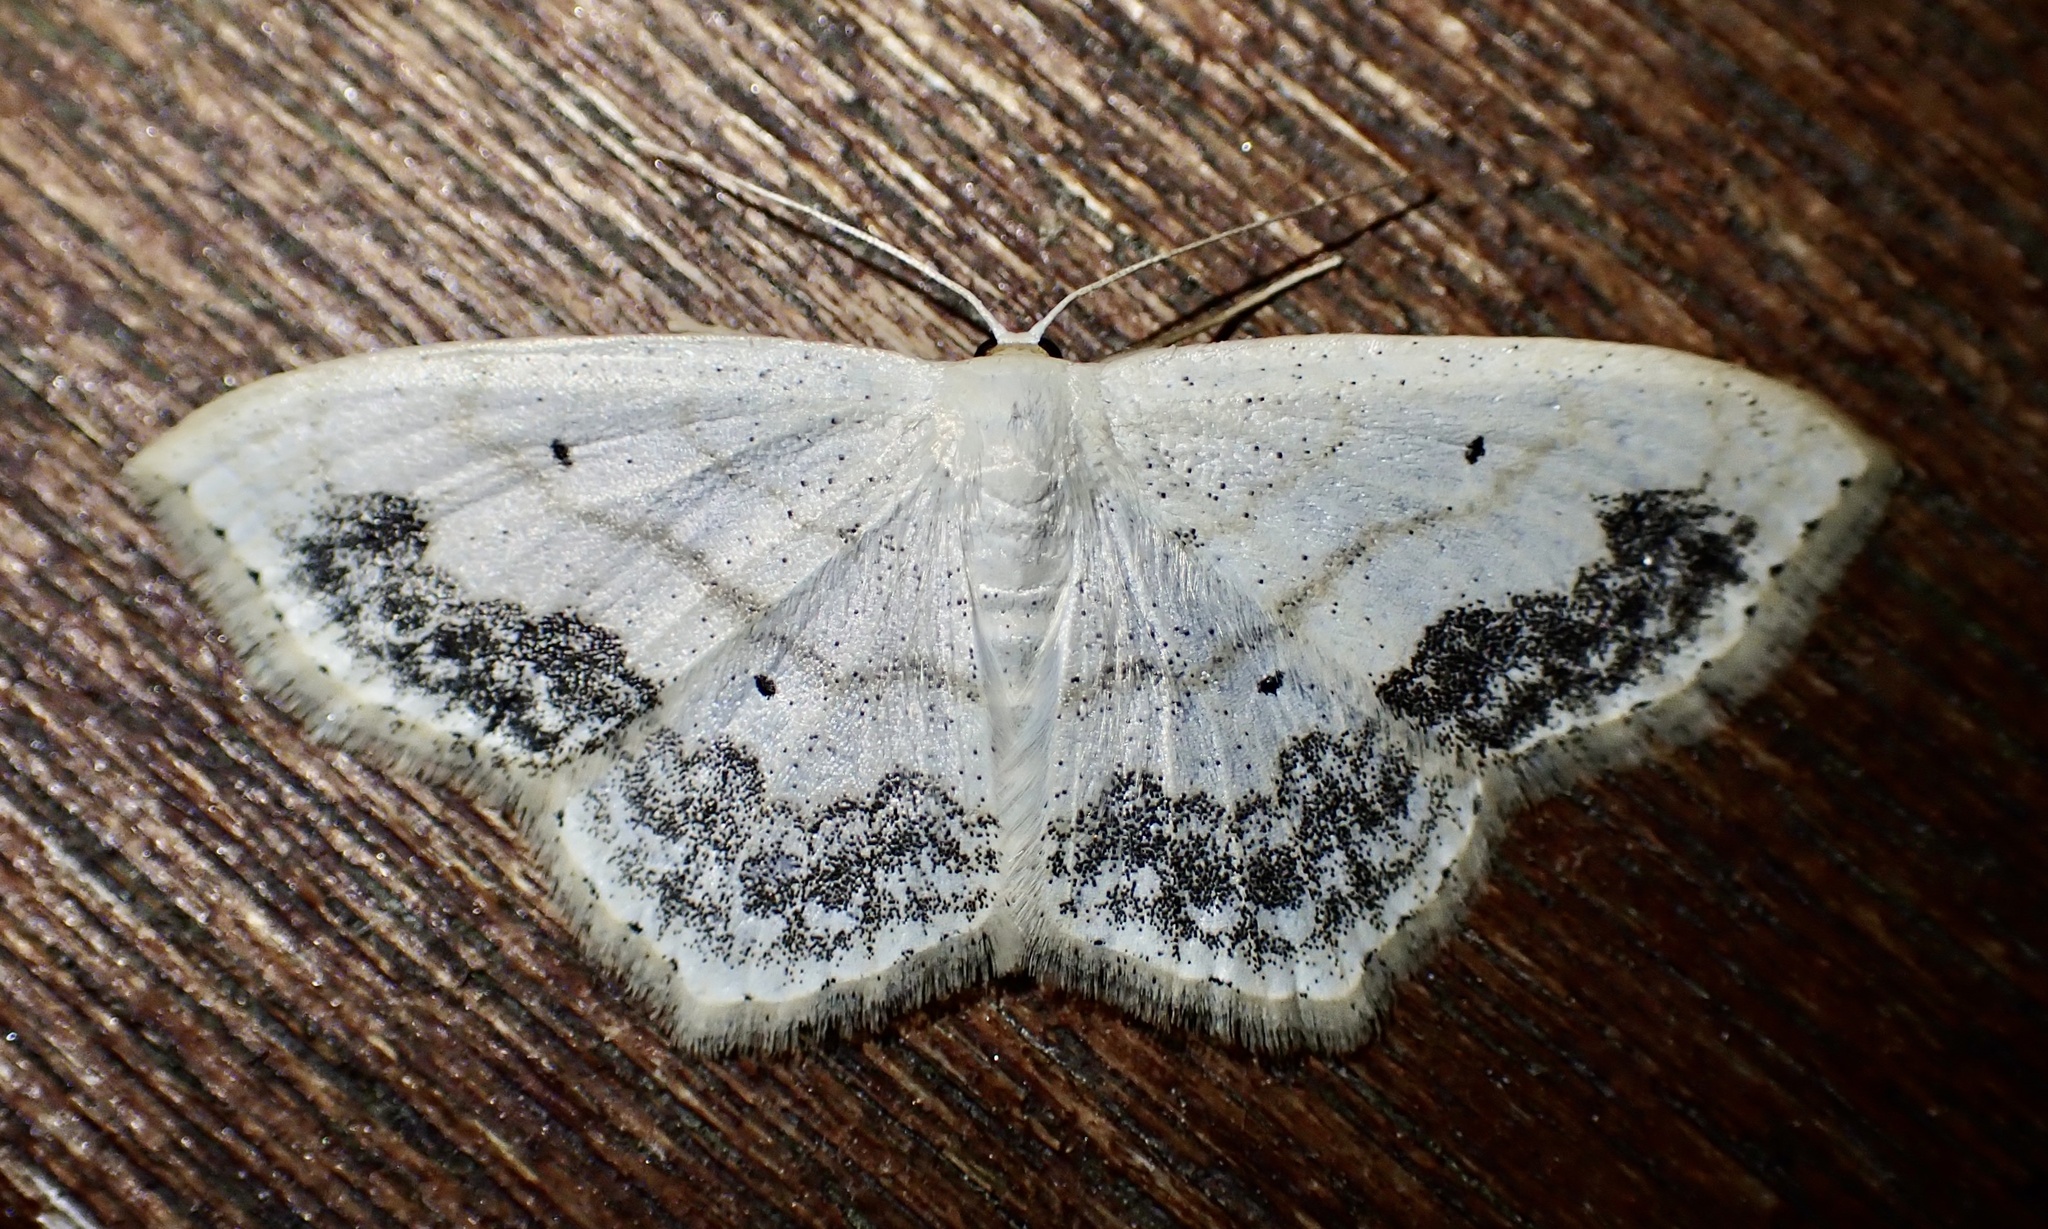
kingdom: Animalia
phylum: Arthropoda
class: Insecta
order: Lepidoptera
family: Geometridae
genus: Scopula
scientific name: Scopula limboundata
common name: Large lace border
